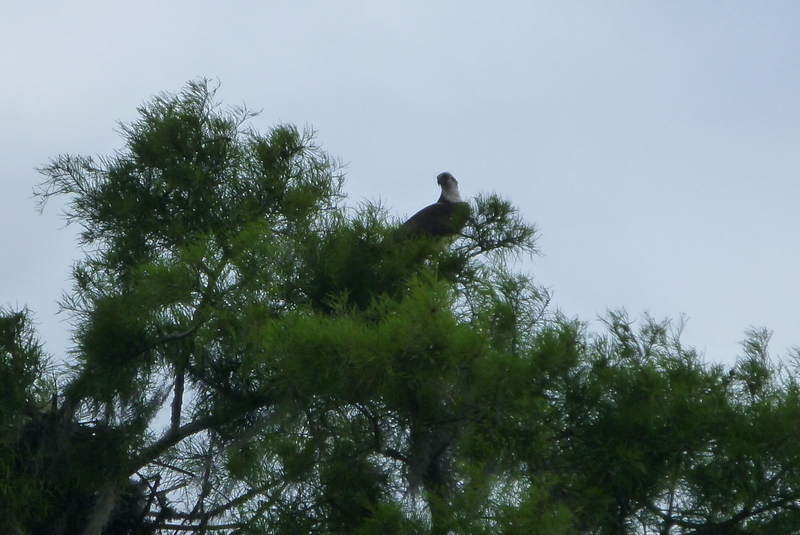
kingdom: Animalia
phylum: Chordata
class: Aves
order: Accipitriformes
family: Pandionidae
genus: Pandion
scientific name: Pandion haliaetus
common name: Osprey
